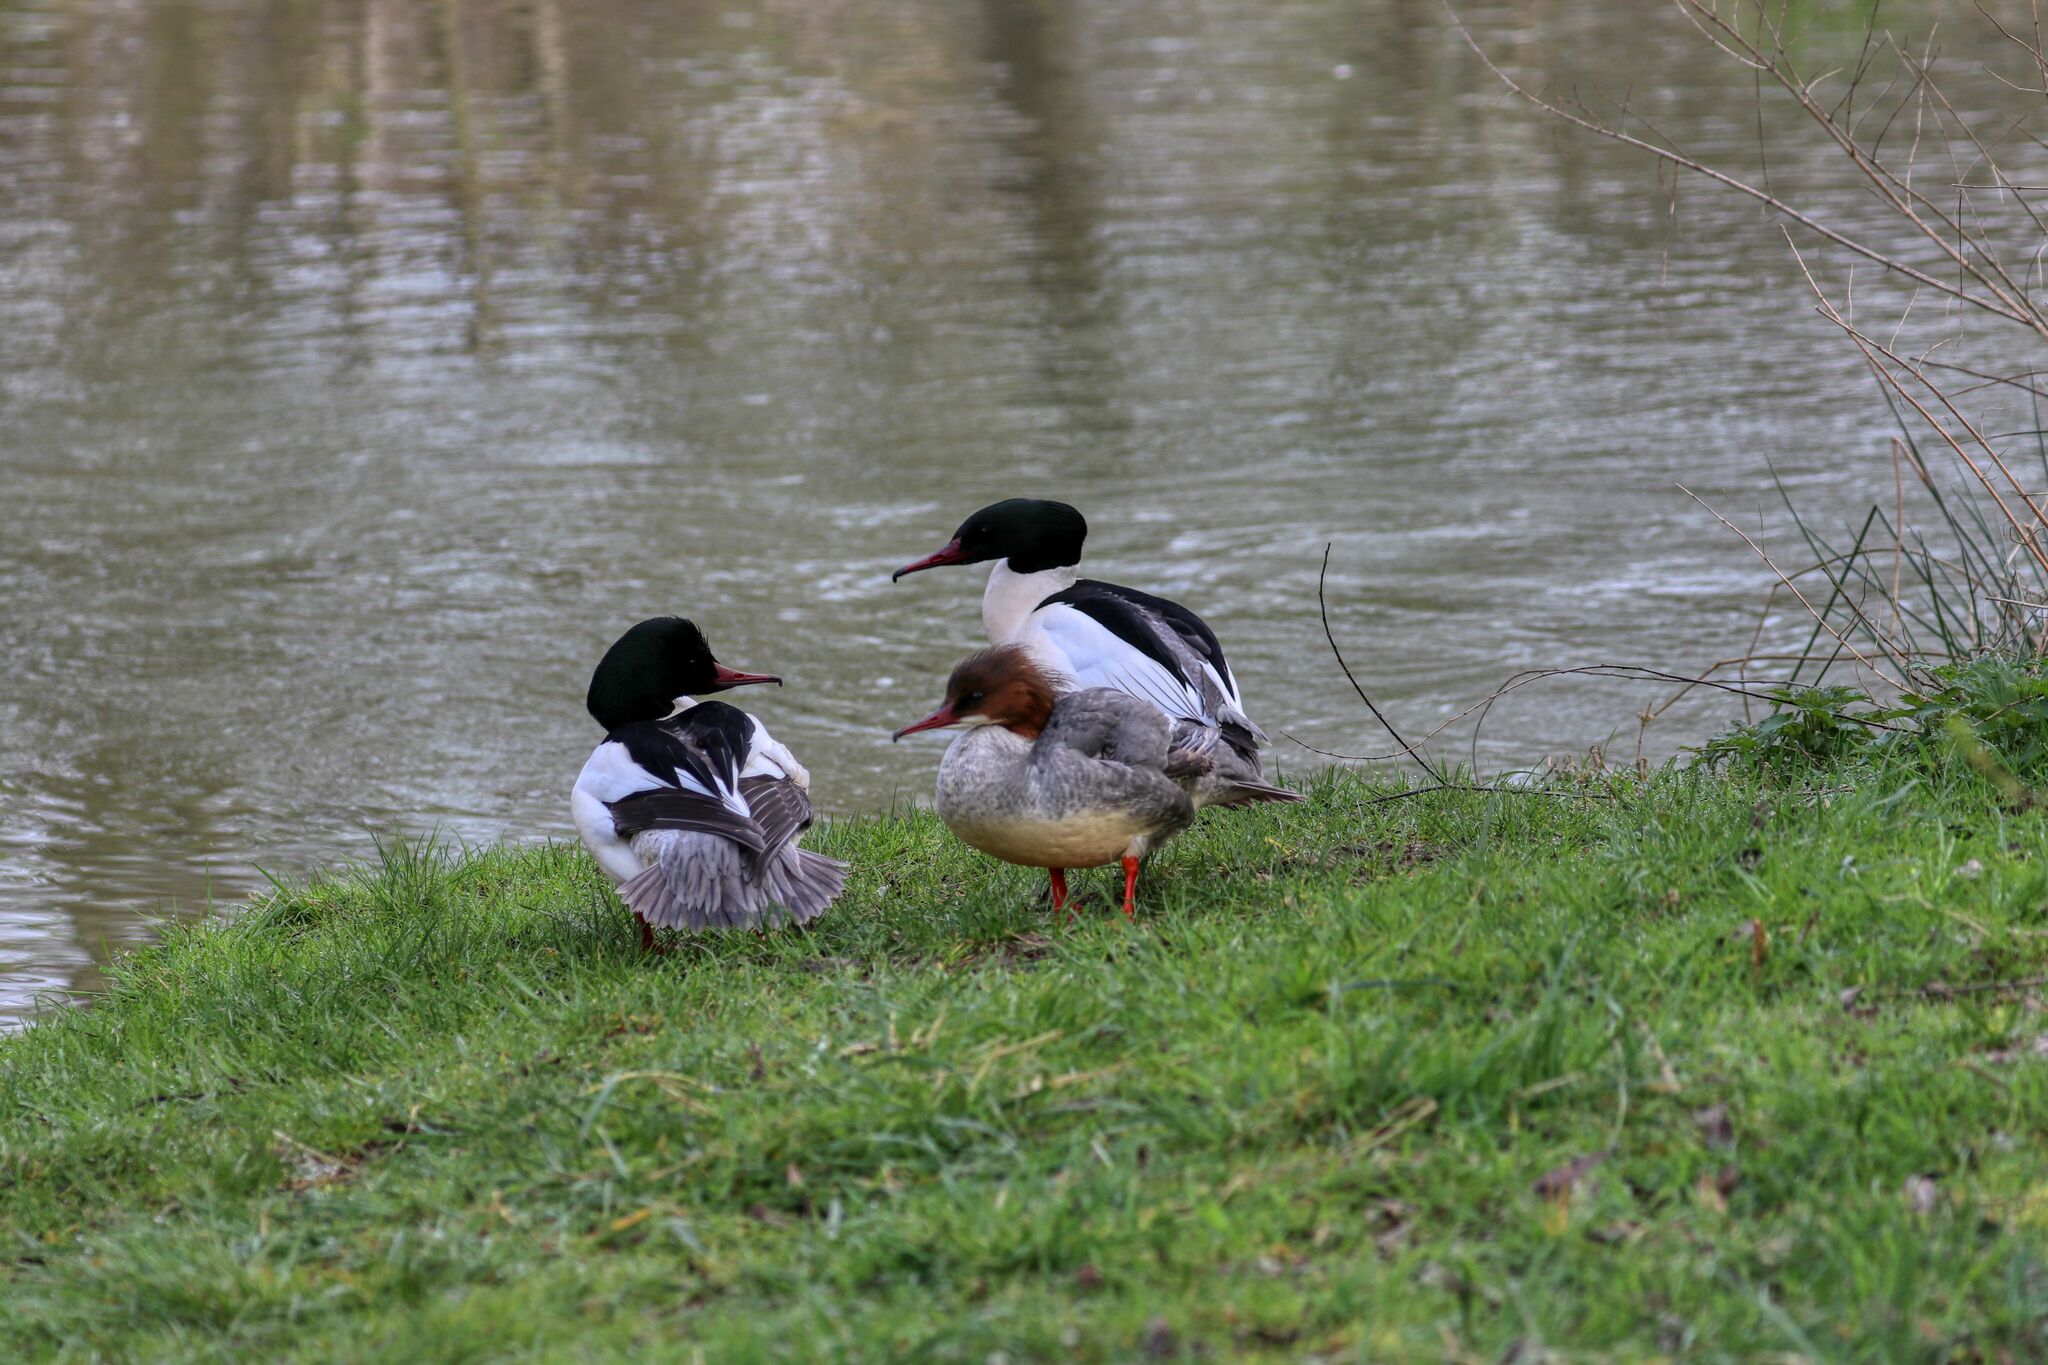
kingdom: Animalia
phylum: Chordata
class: Aves
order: Anseriformes
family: Anatidae
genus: Mergus
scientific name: Mergus merganser
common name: Common merganser
